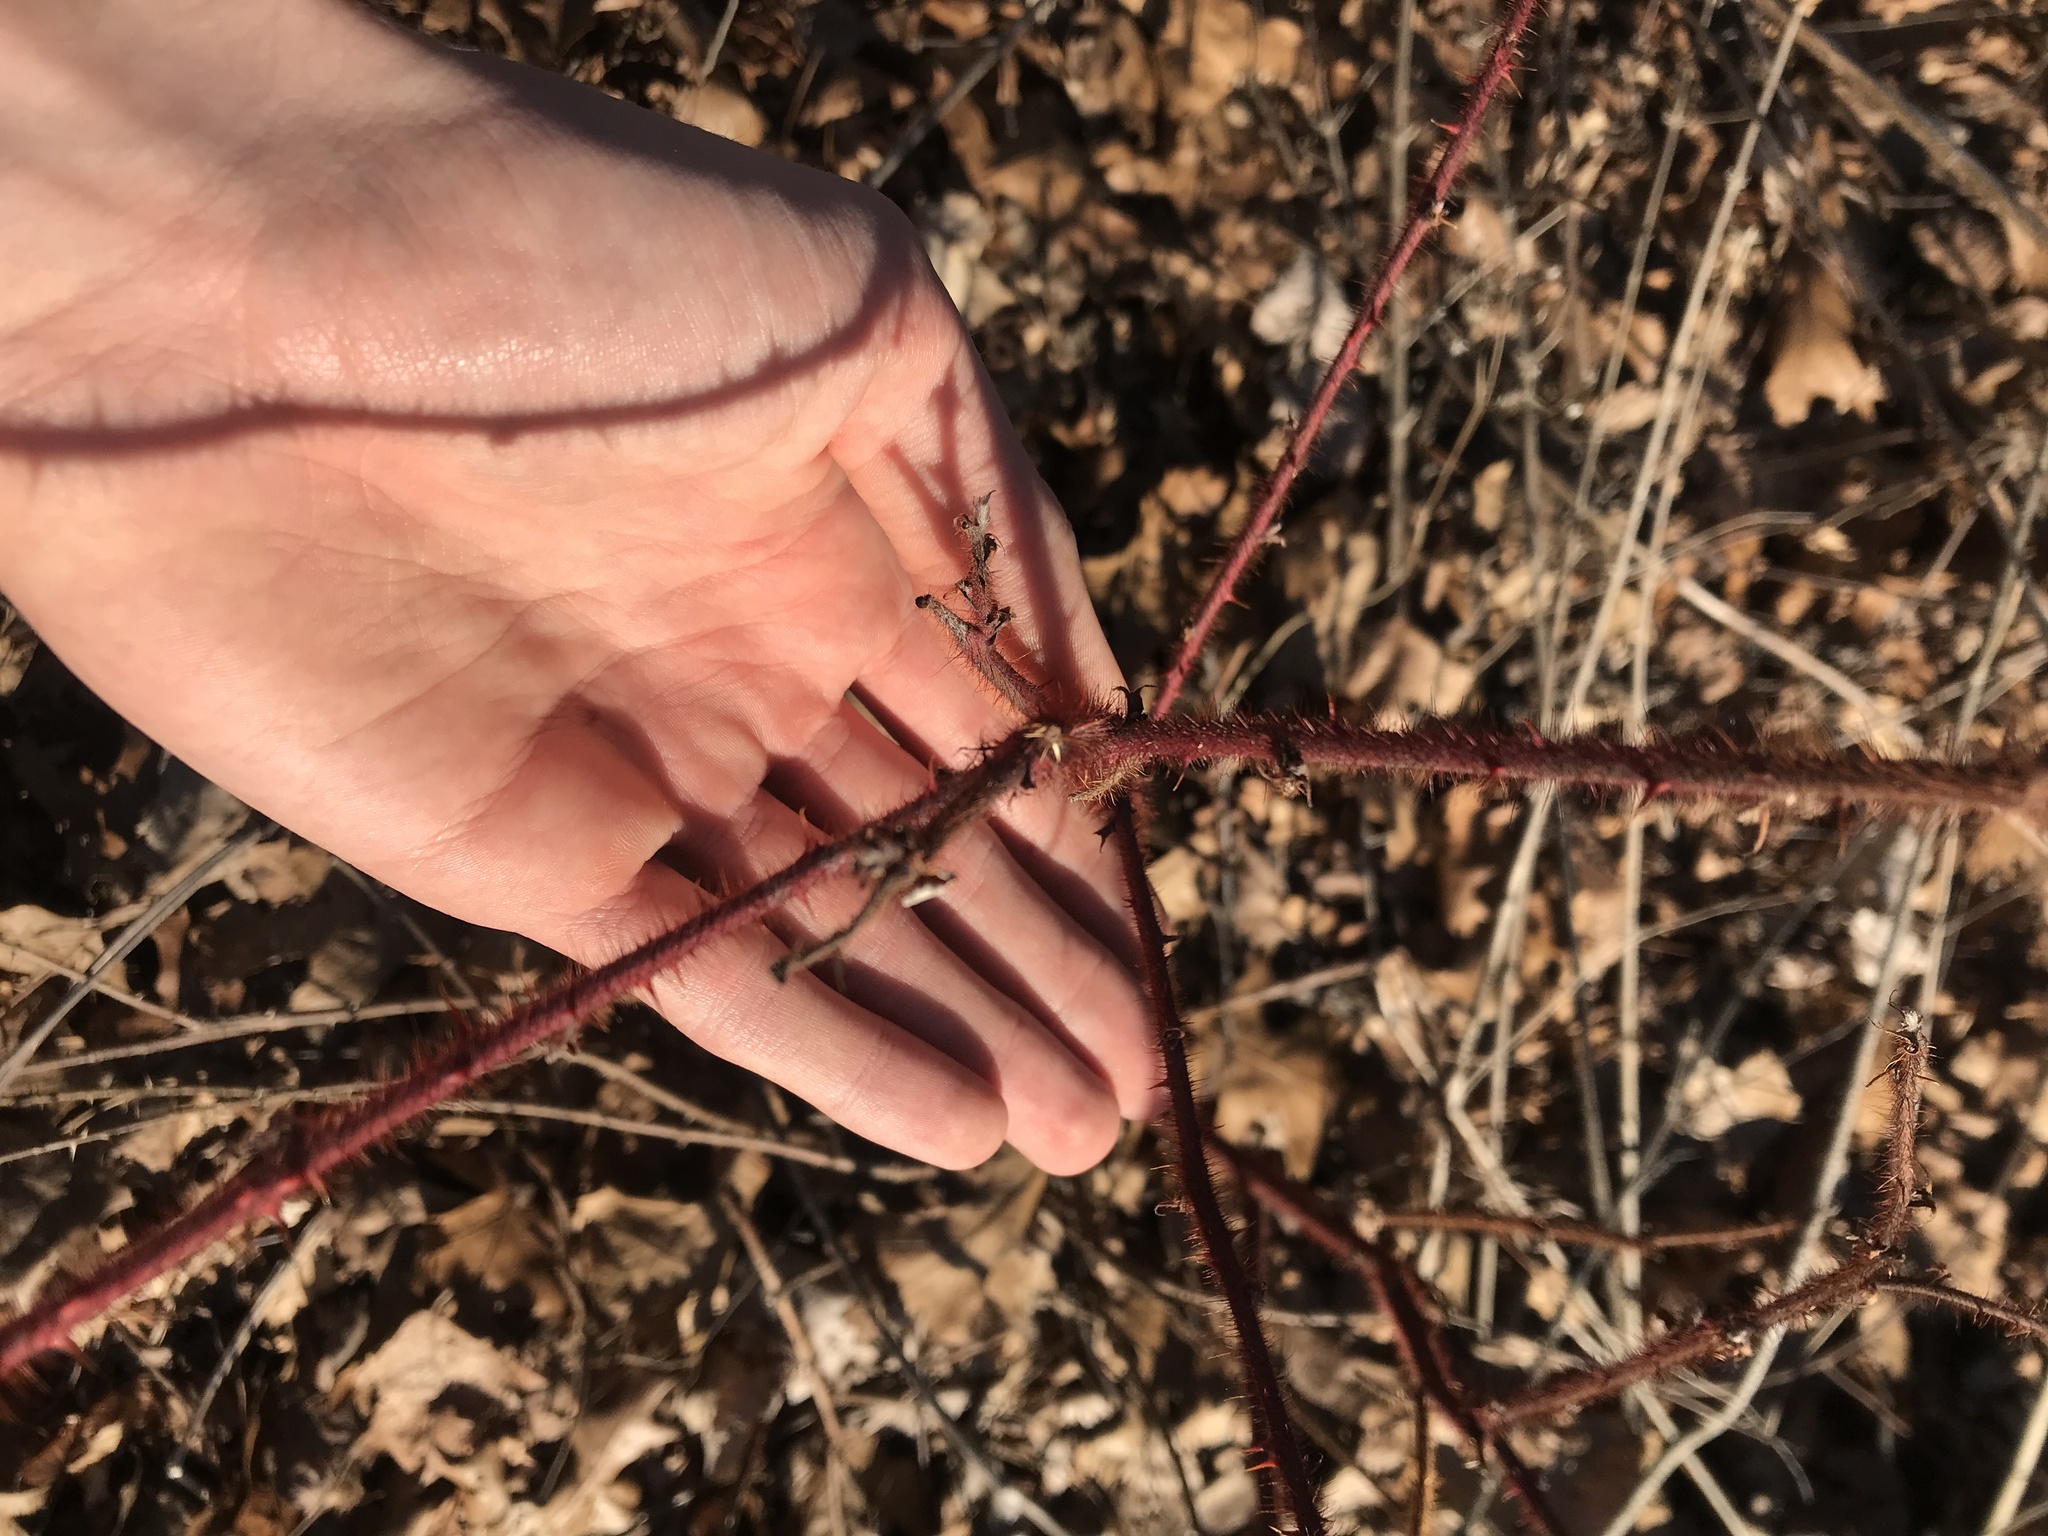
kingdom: Plantae
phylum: Tracheophyta
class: Magnoliopsida
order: Rosales
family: Rosaceae
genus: Rubus
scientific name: Rubus phoenicolasius
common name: Japanese wineberry
